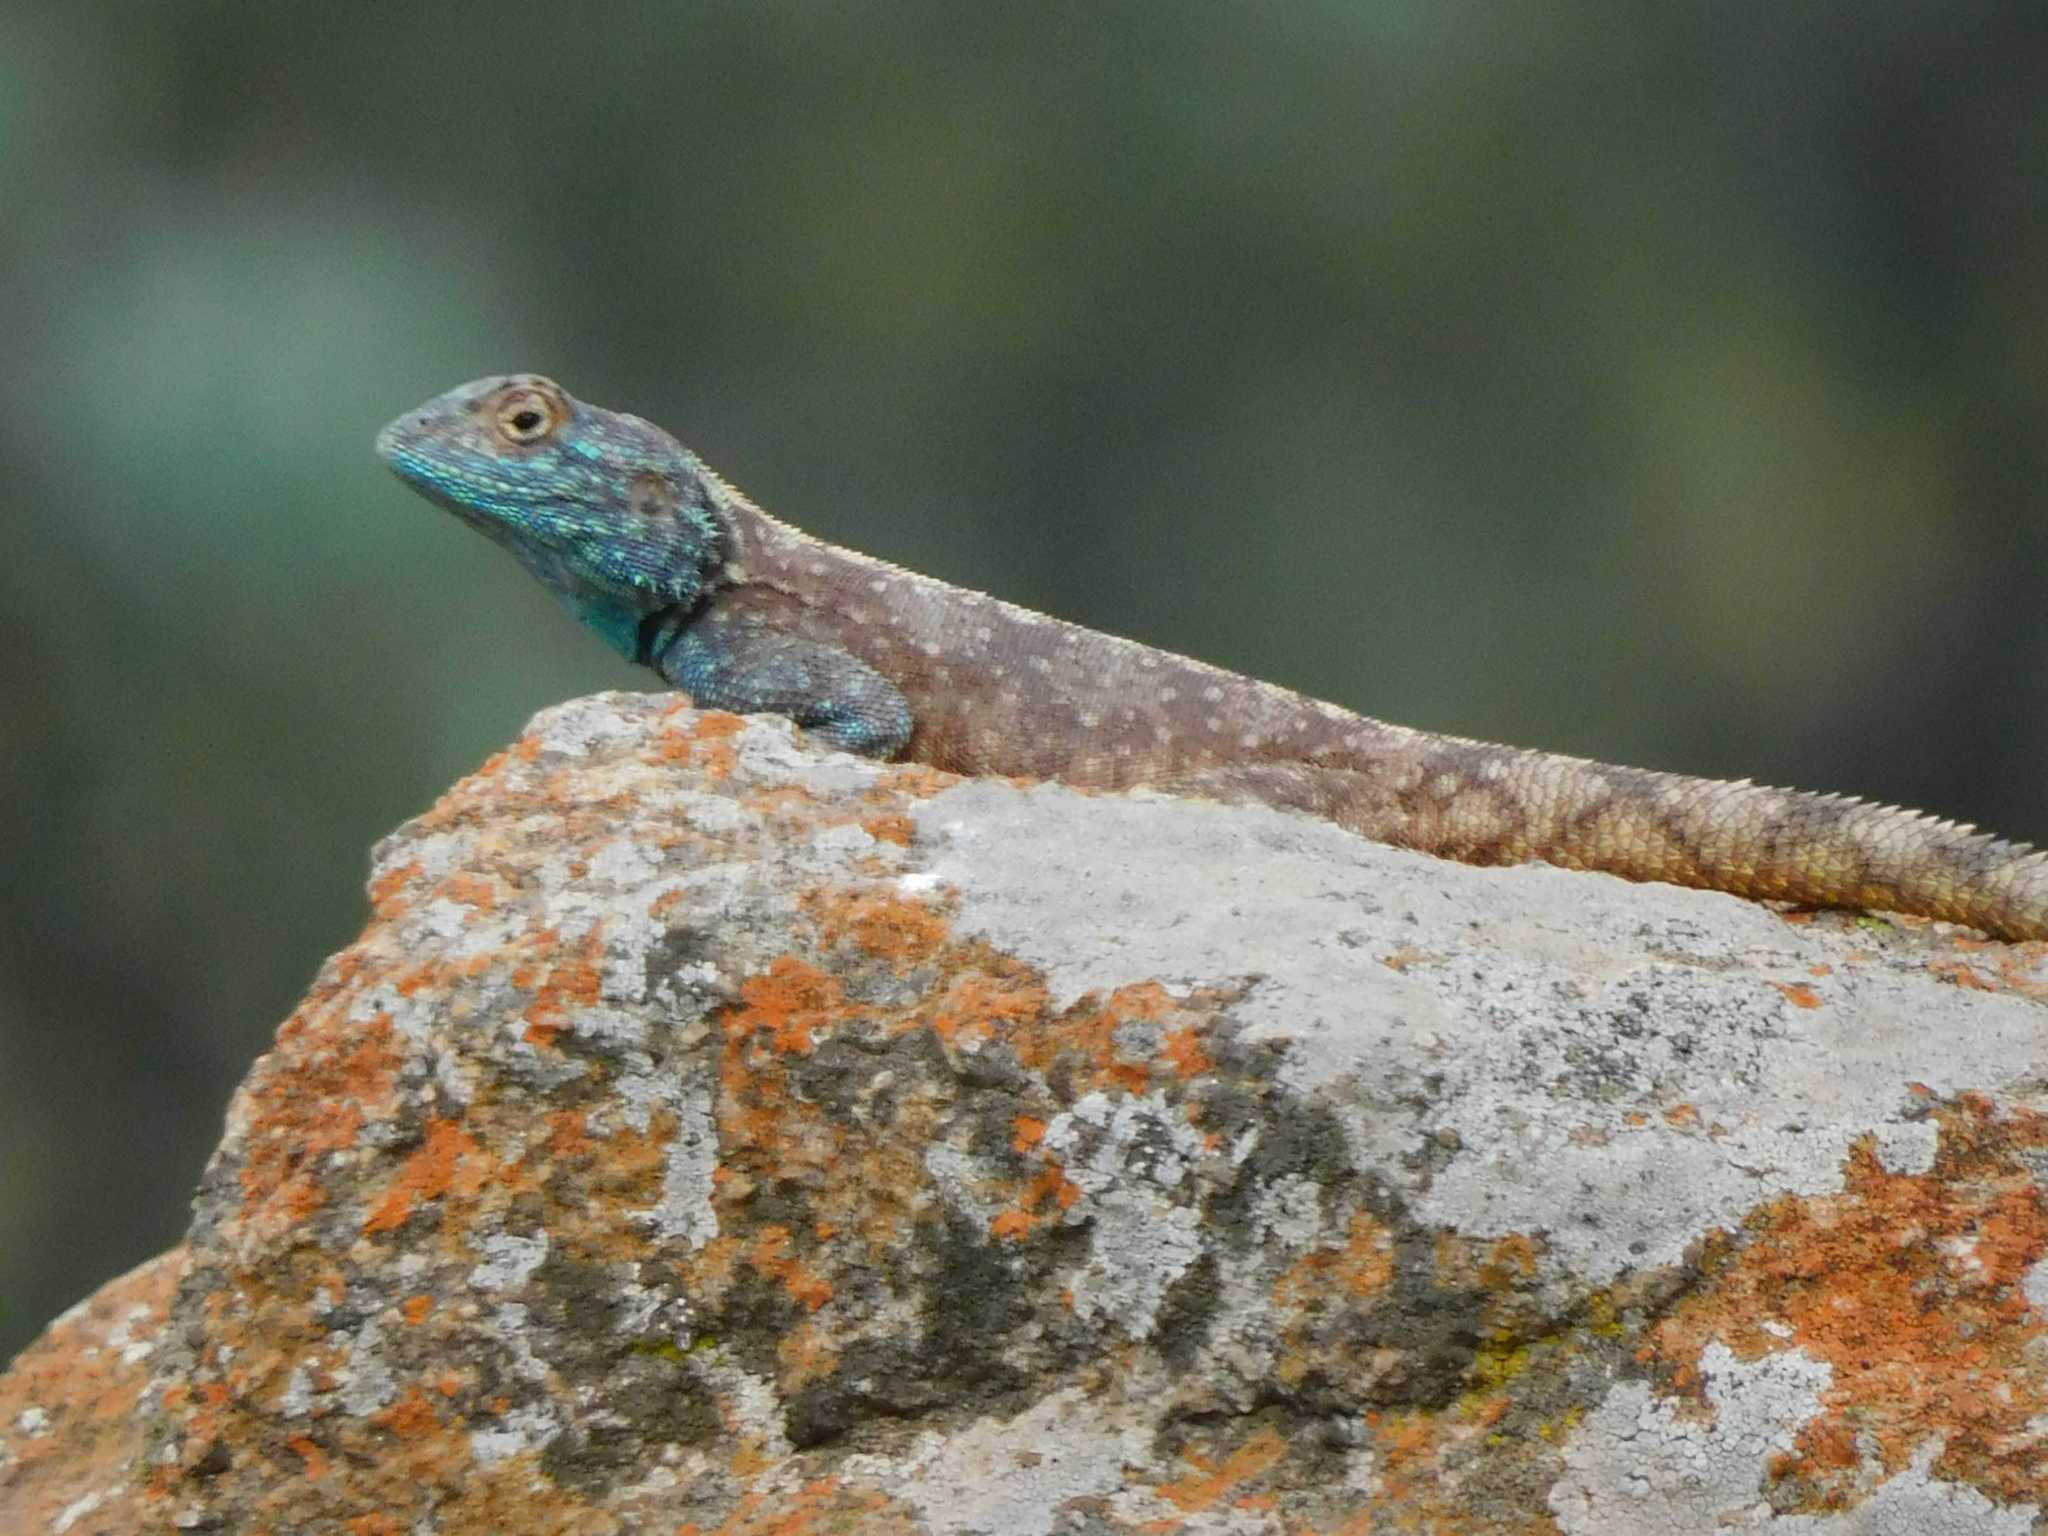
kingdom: Animalia
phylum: Chordata
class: Squamata
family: Agamidae
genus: Agama
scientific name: Agama atra
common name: Southern african rock agama
